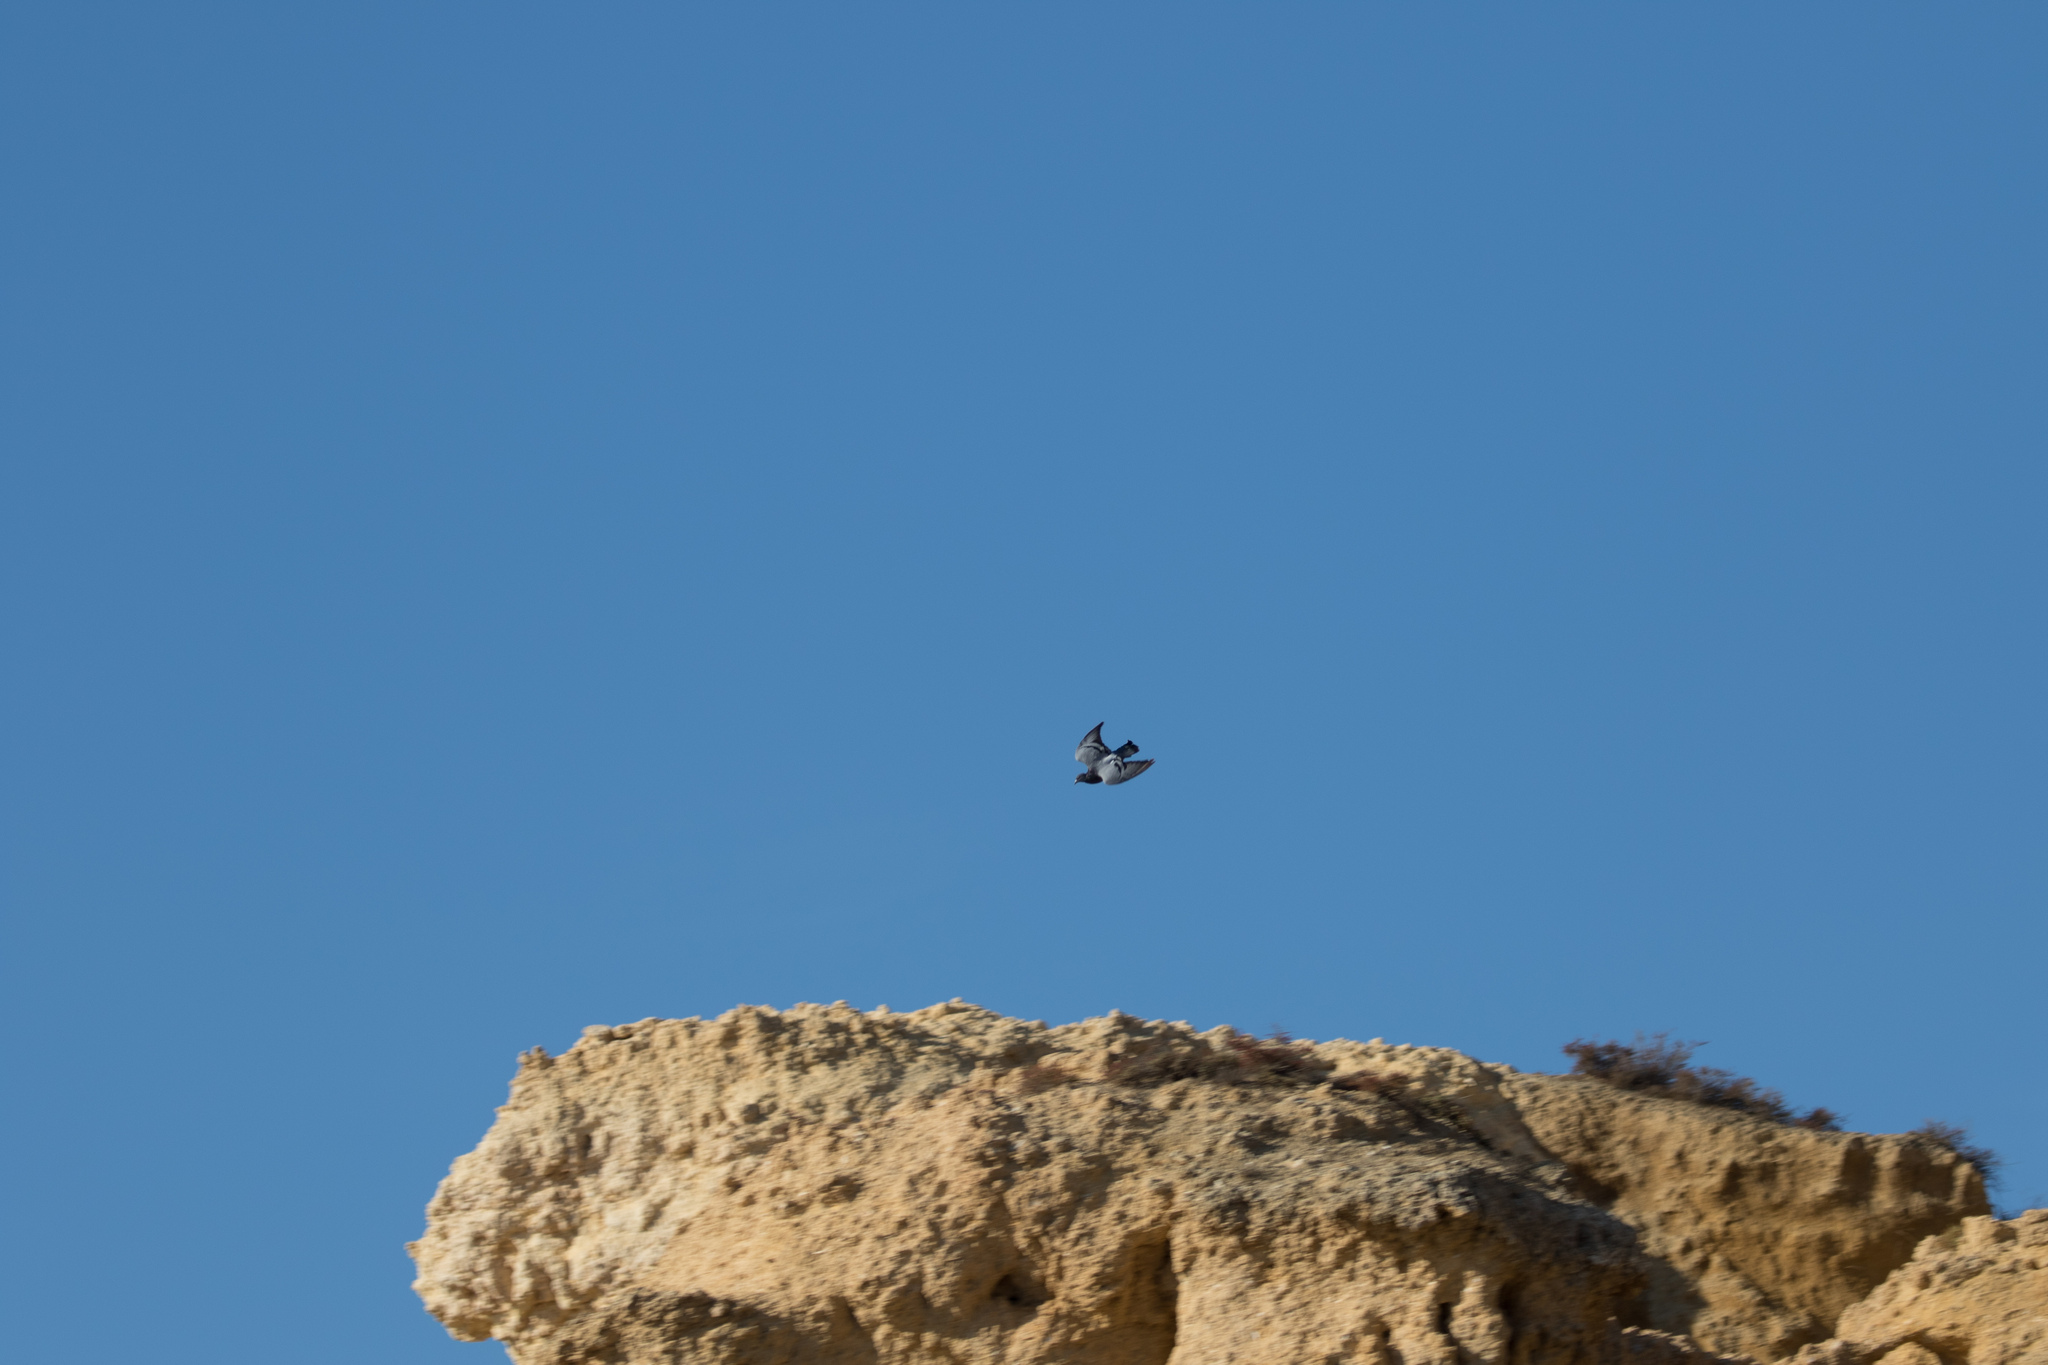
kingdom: Animalia
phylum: Chordata
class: Aves
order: Columbiformes
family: Columbidae
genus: Columba
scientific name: Columba livia
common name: Rock pigeon
